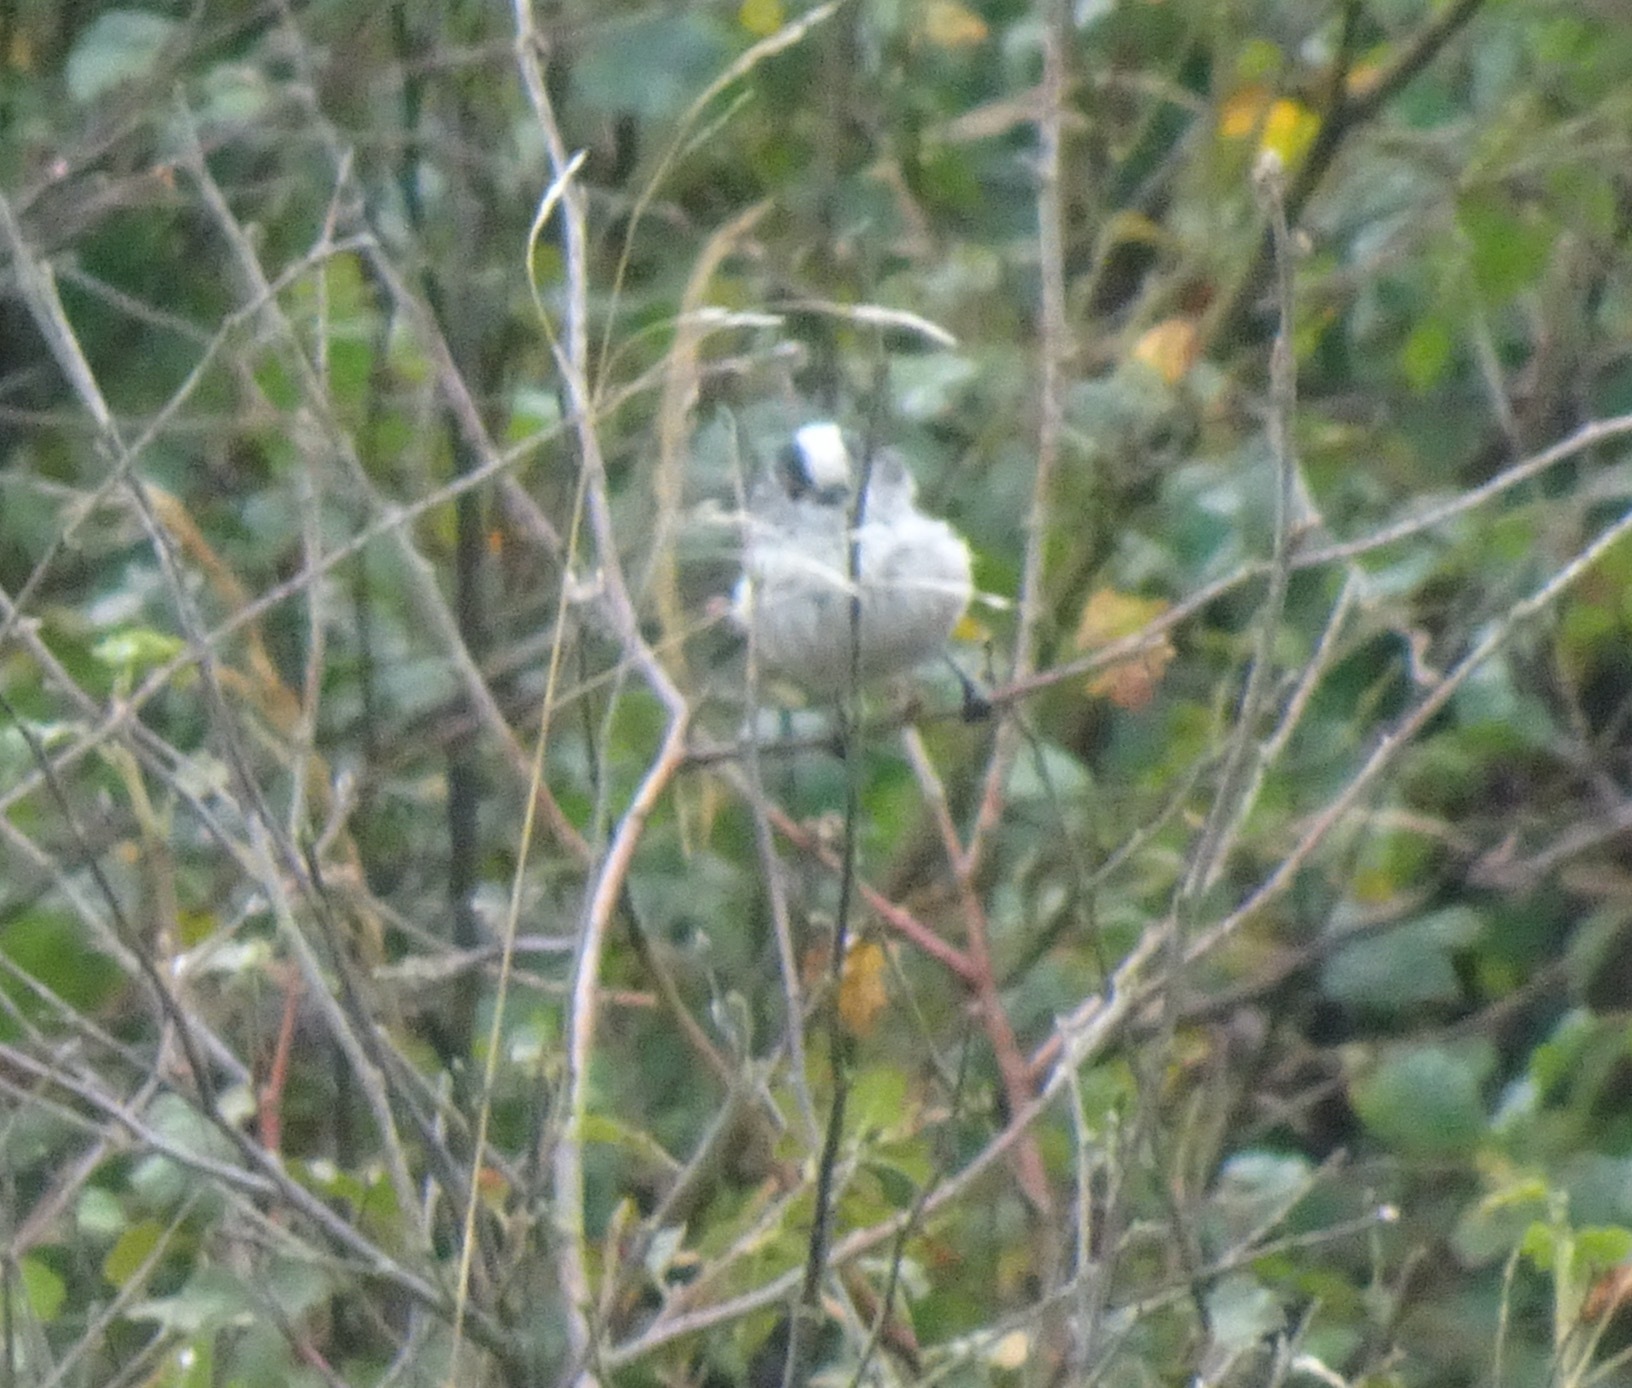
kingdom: Animalia
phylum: Chordata
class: Aves
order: Passeriformes
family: Aegithalidae
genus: Aegithalos
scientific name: Aegithalos caudatus
